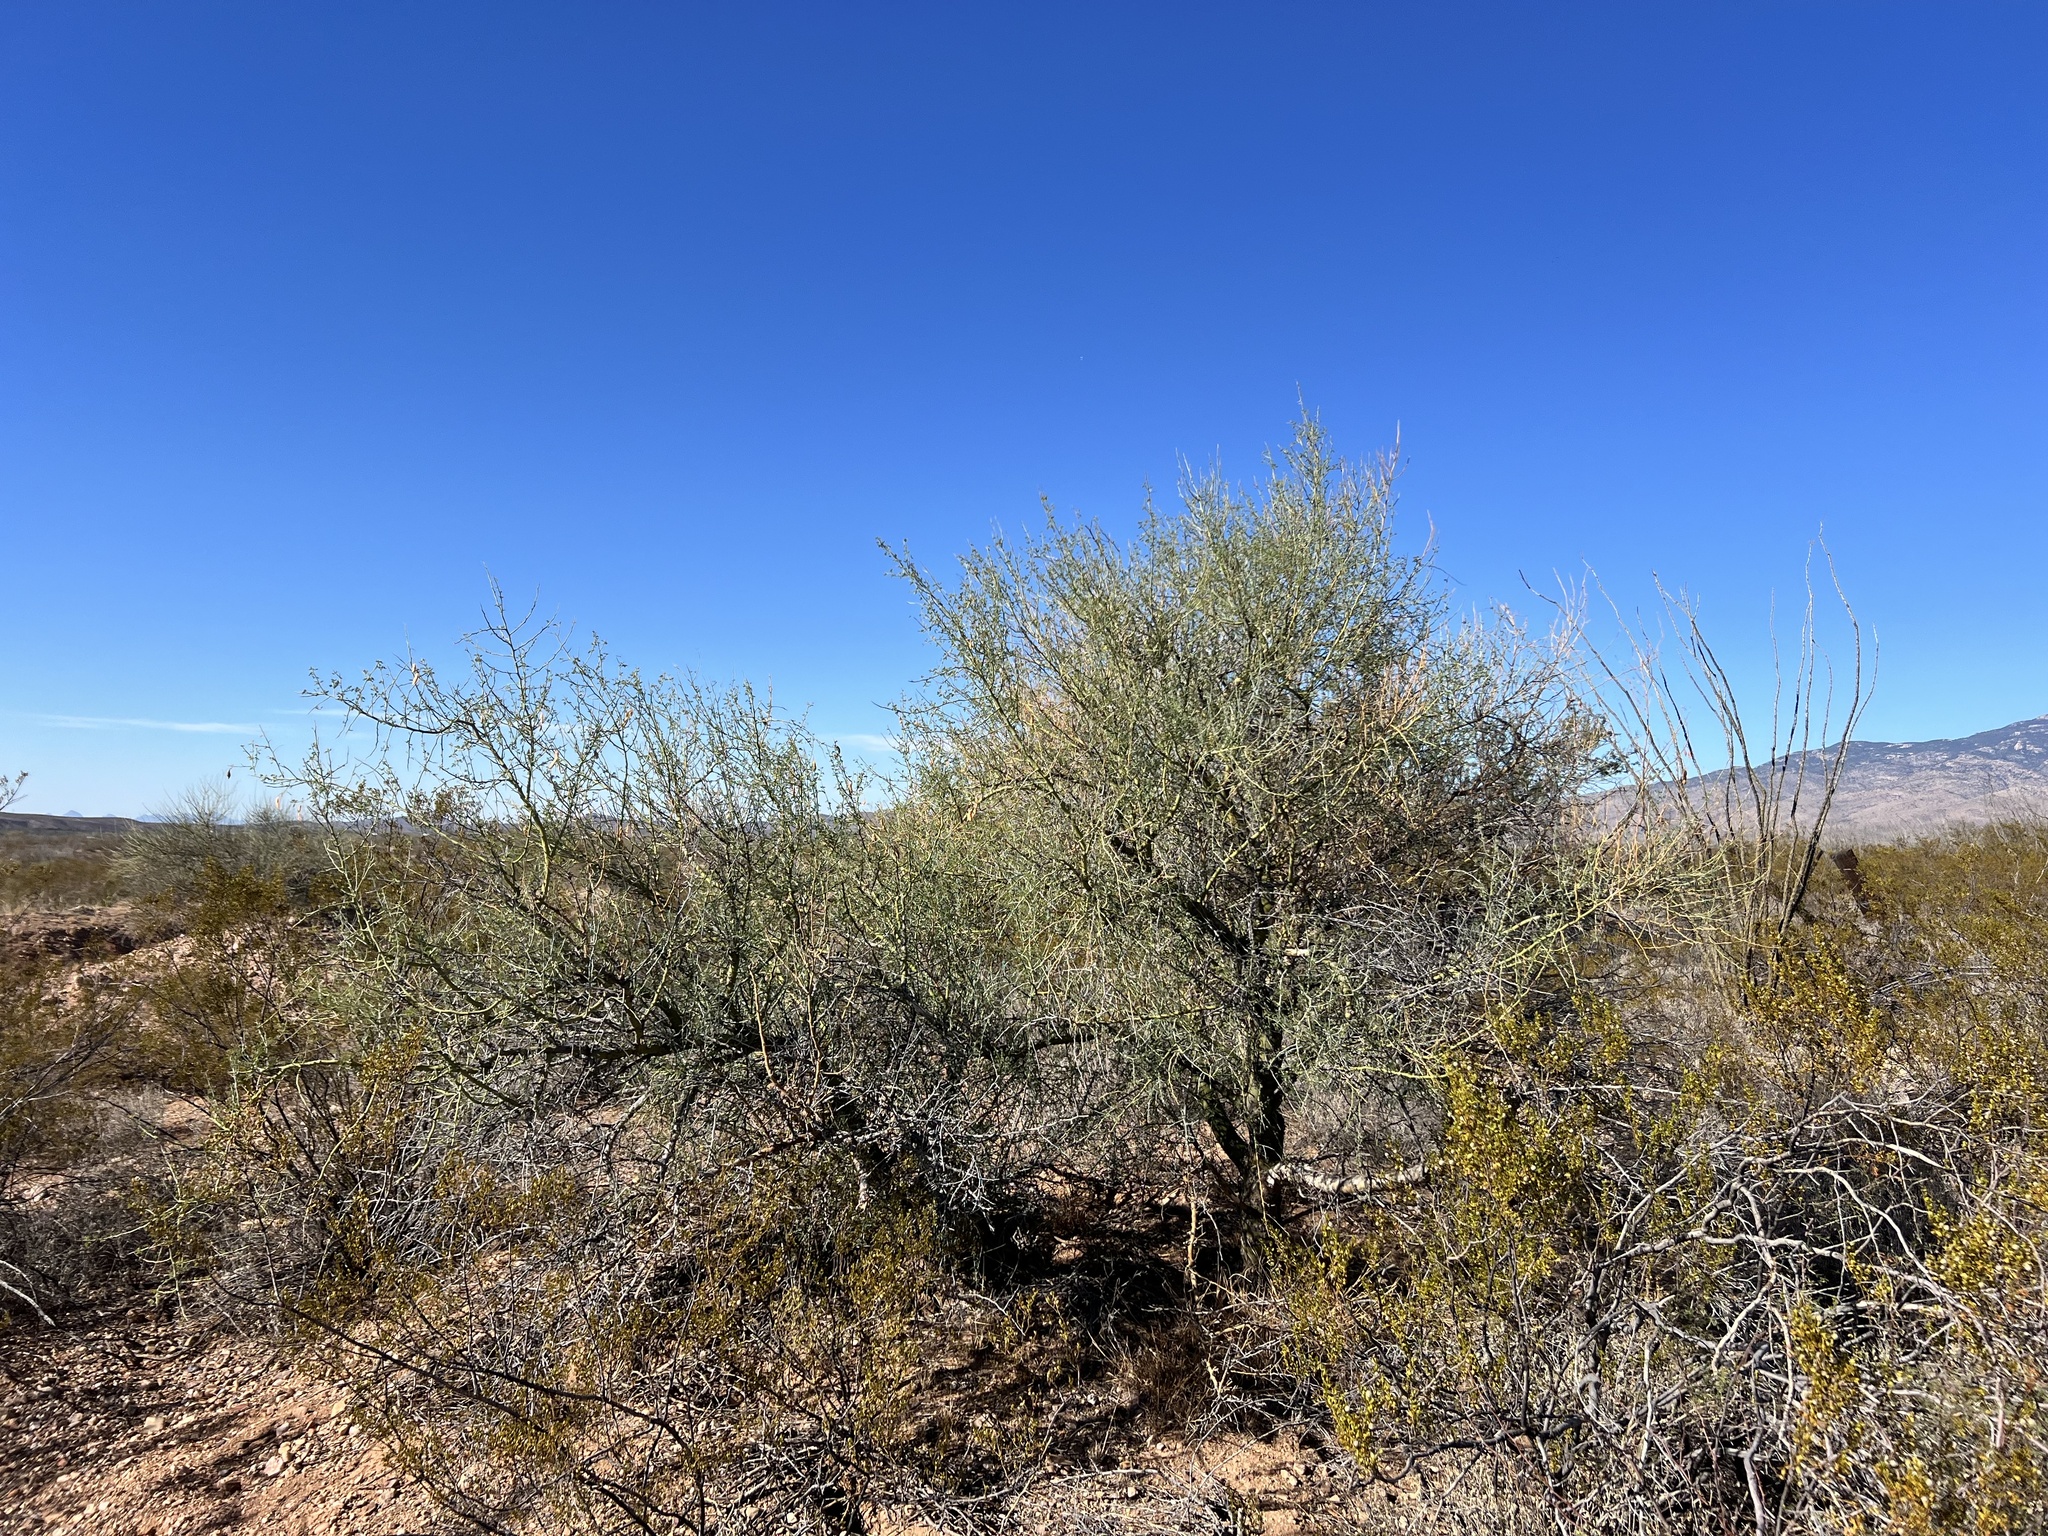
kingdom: Plantae
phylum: Tracheophyta
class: Magnoliopsida
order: Fabales
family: Fabaceae
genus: Parkinsonia
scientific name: Parkinsonia florida
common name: Blue paloverde
